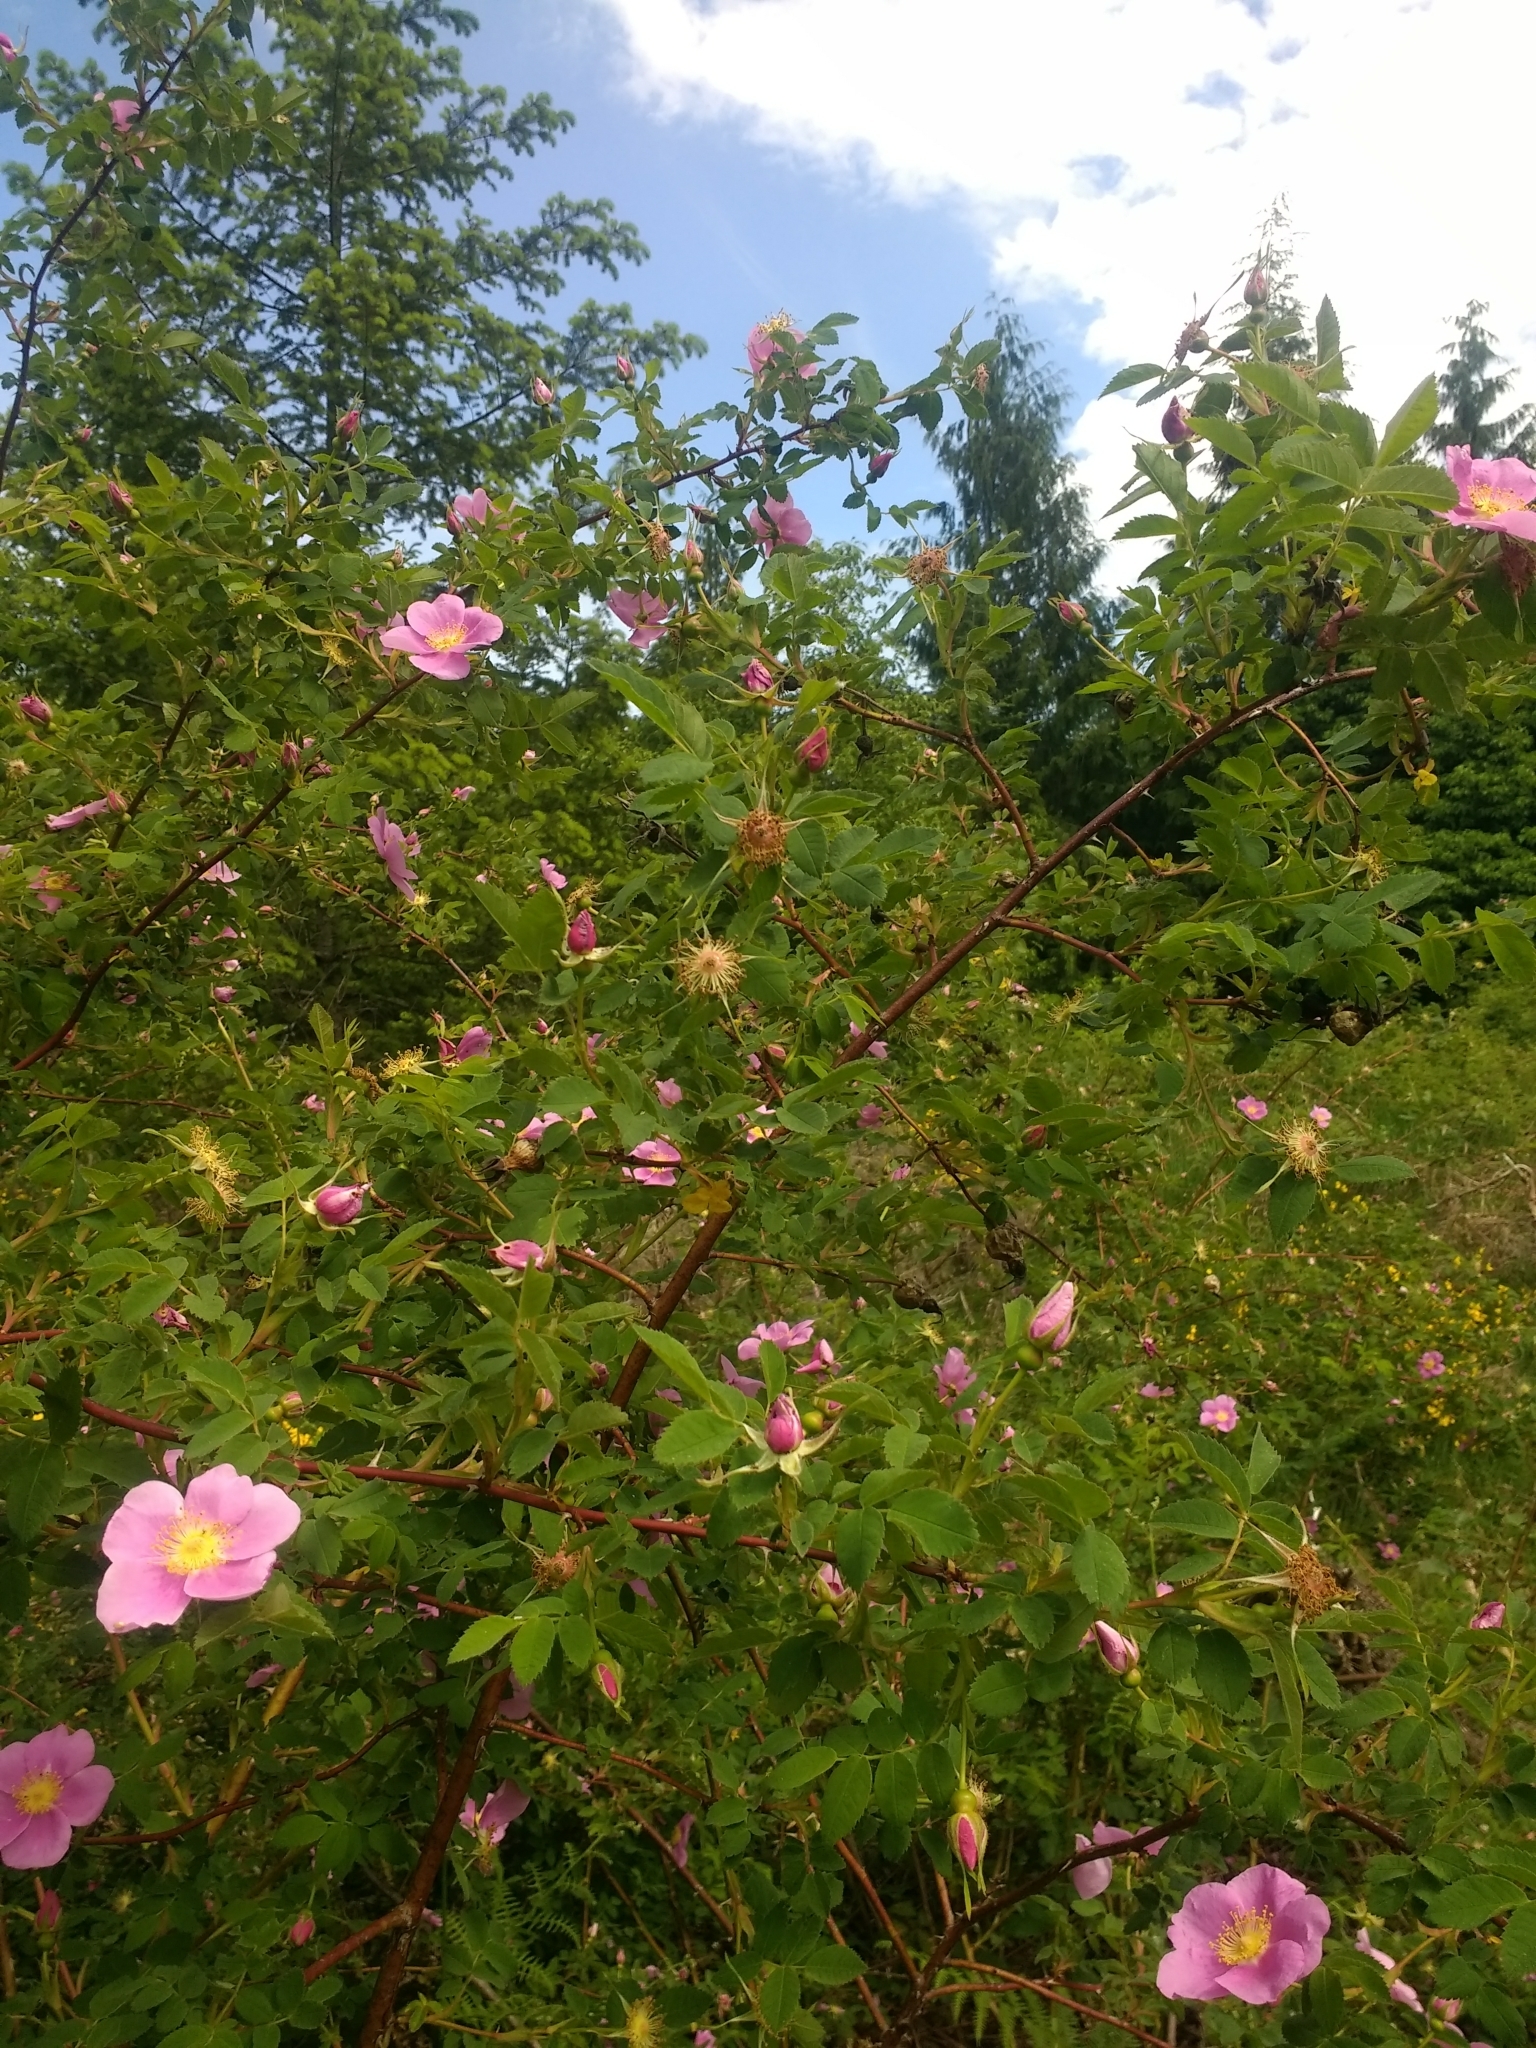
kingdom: Plantae
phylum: Tracheophyta
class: Magnoliopsida
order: Rosales
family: Rosaceae
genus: Rosa
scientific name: Rosa nutkana
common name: Nootka rose
